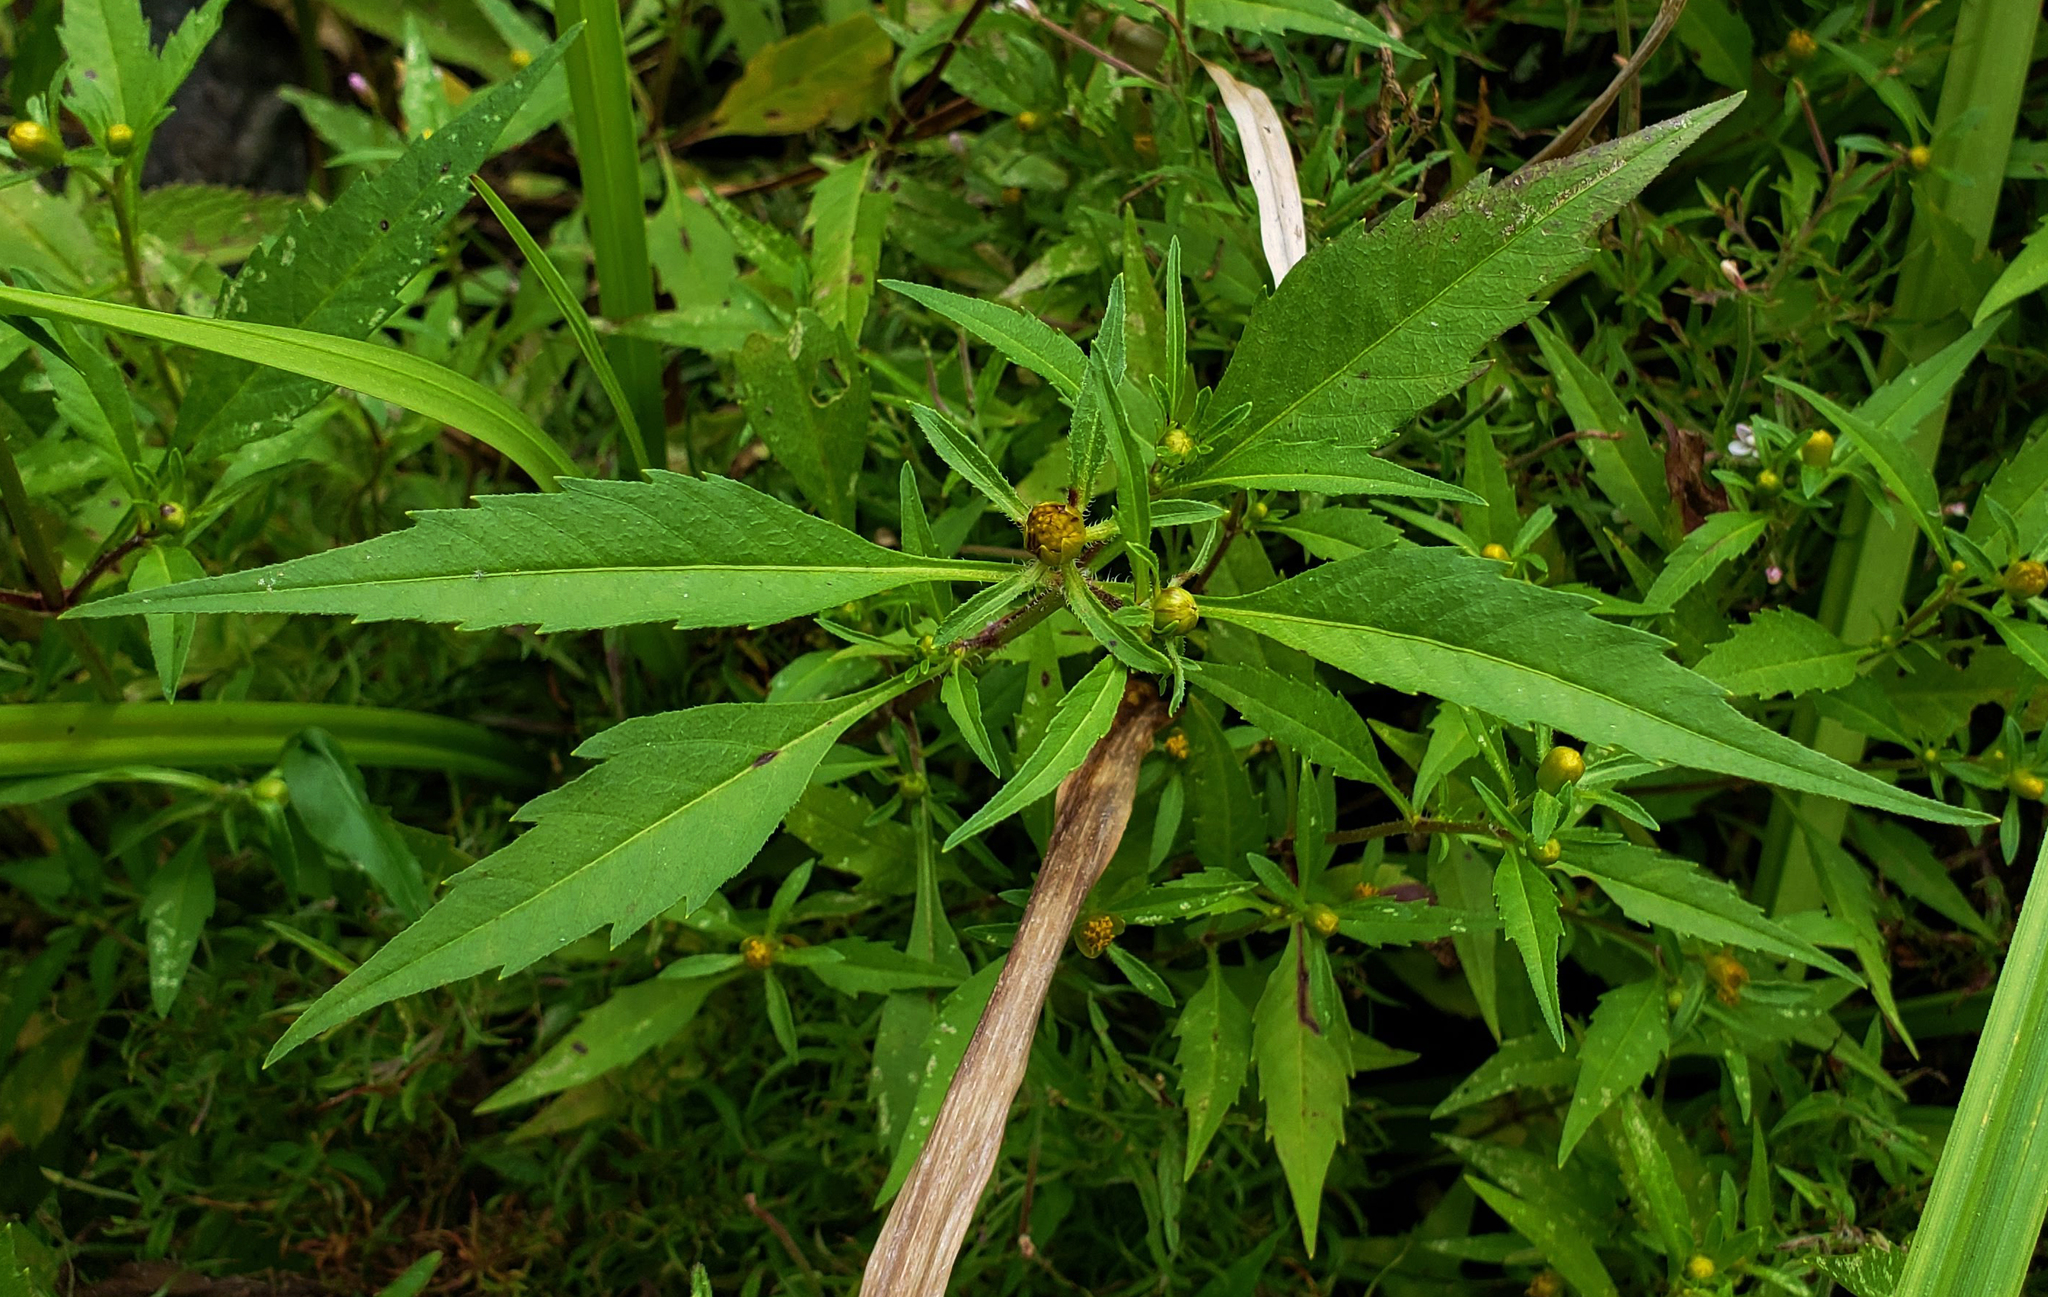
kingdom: Plantae
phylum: Tracheophyta
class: Magnoliopsida
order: Asterales
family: Asteraceae
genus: Bidens
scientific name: Bidens connata
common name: London bur-marigold
